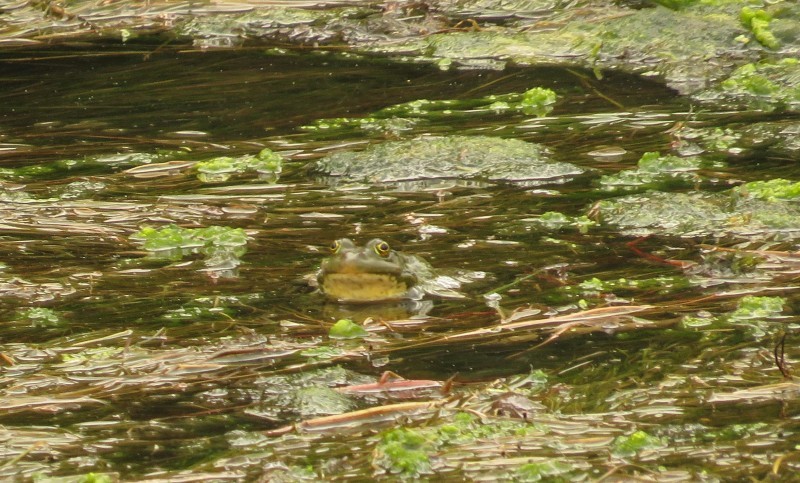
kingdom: Animalia
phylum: Chordata
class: Amphibia
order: Anura
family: Ranidae
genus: Pelophylax
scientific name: Pelophylax ridibundus
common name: Marsh frog
